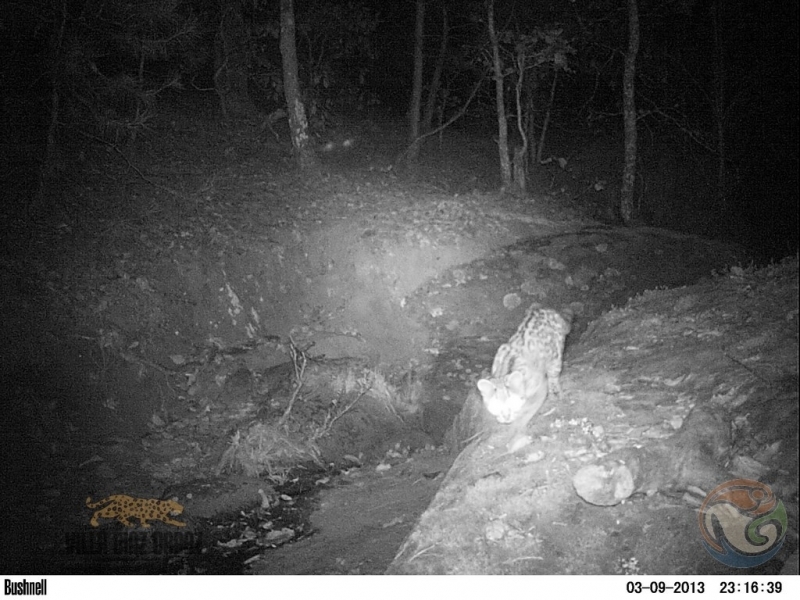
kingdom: Animalia
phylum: Chordata
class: Mammalia
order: Carnivora
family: Felidae
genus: Leopardus
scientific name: Leopardus wiedii
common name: Margay
